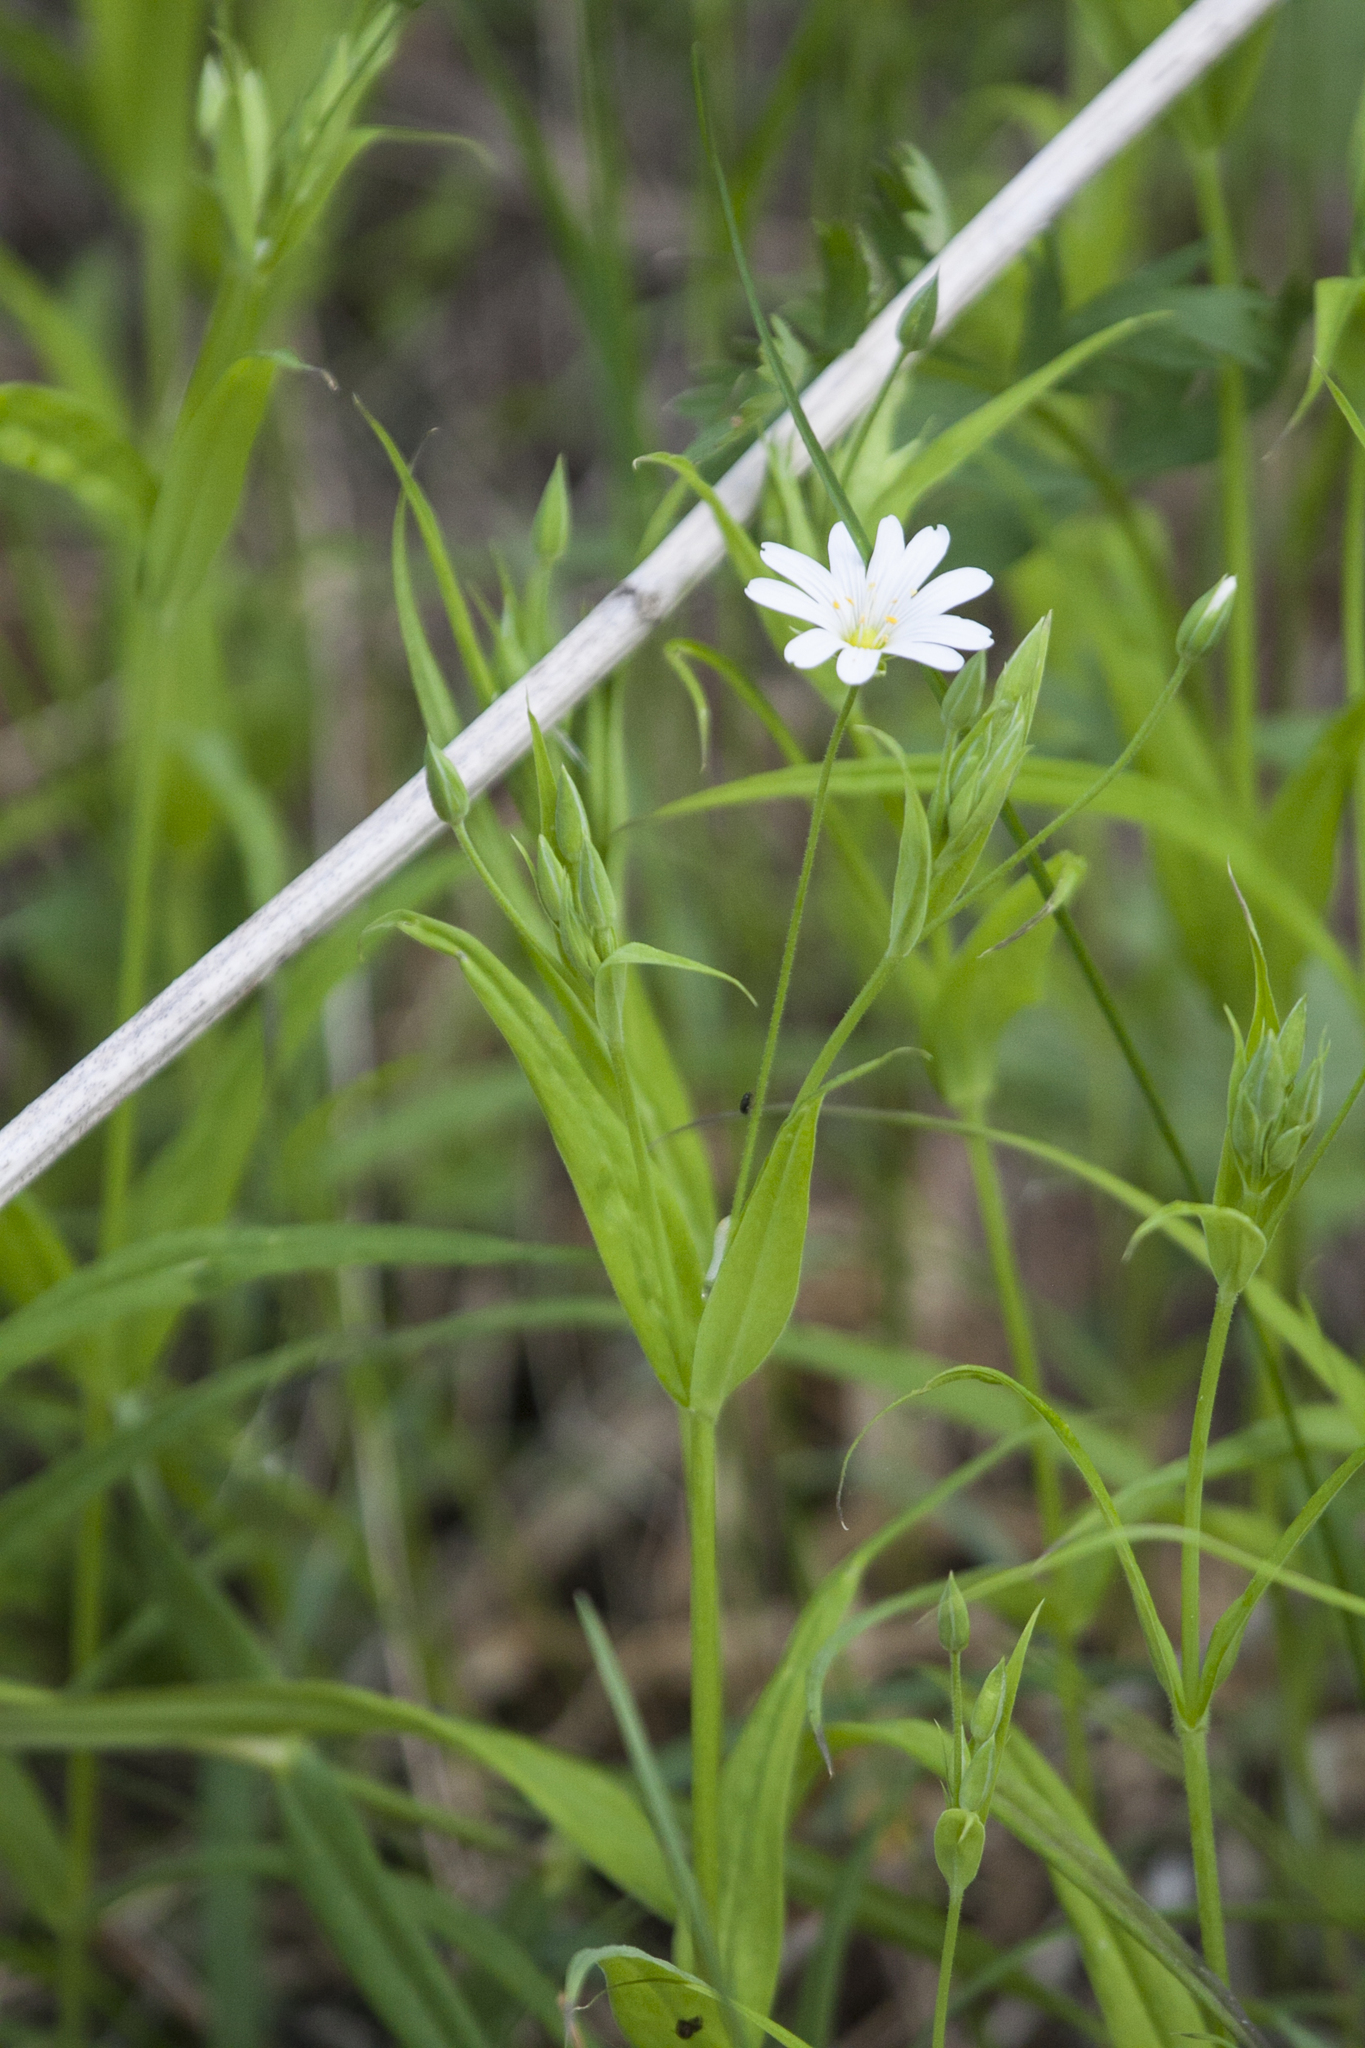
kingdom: Plantae
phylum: Tracheophyta
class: Magnoliopsida
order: Caryophyllales
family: Caryophyllaceae
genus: Rabelera
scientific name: Rabelera holostea
